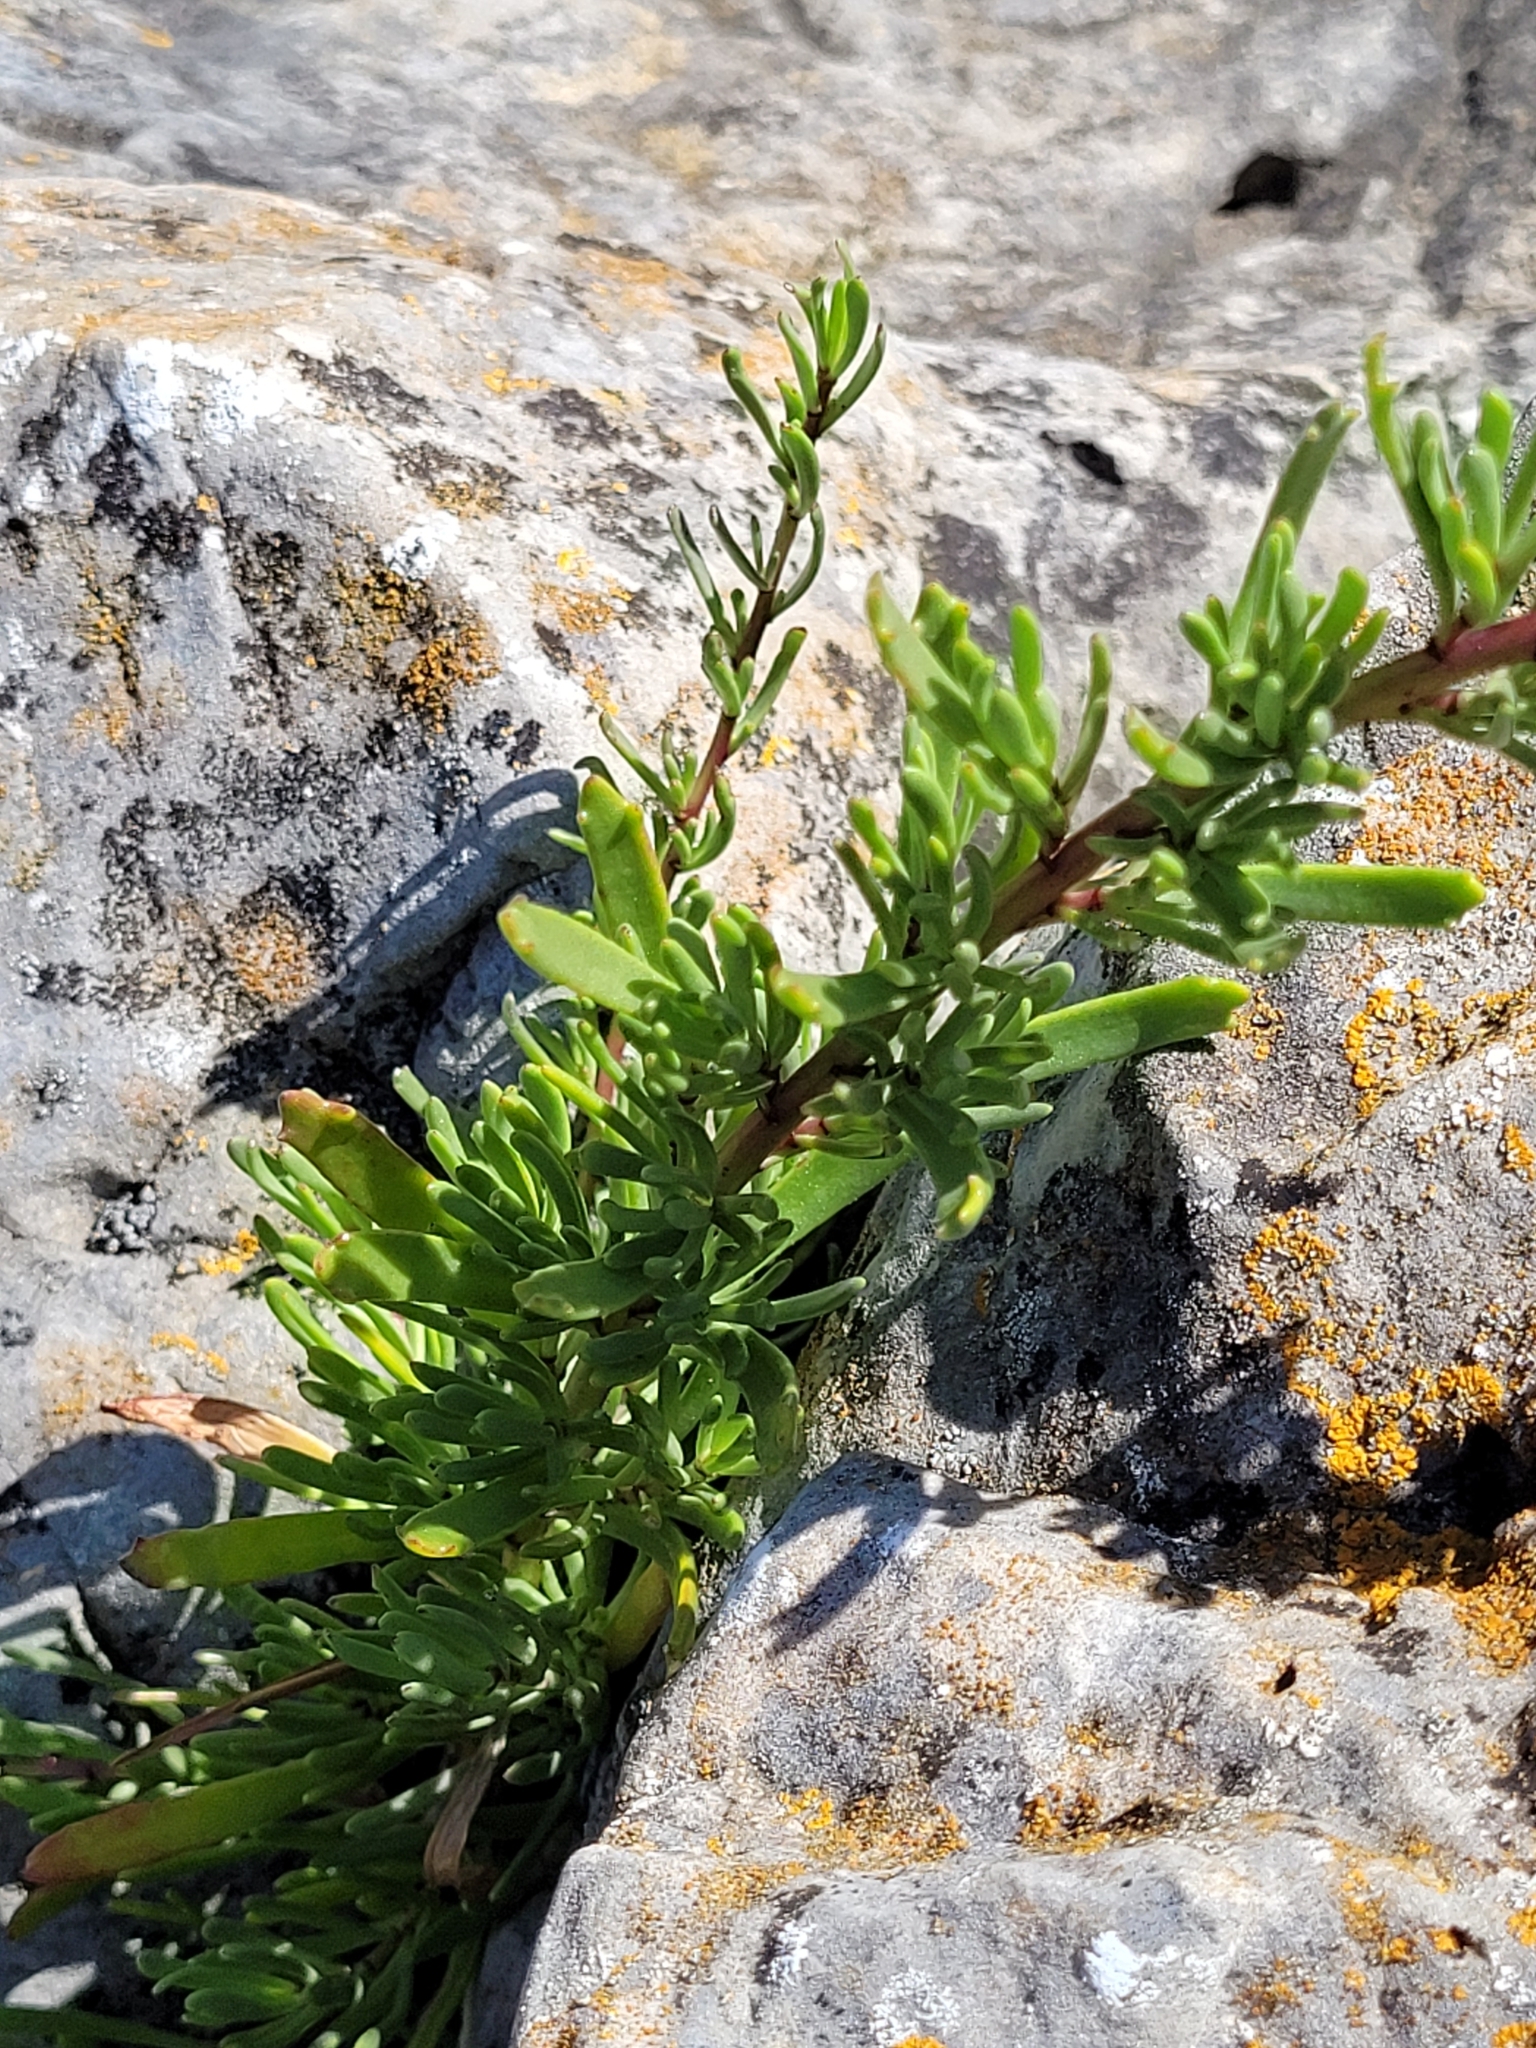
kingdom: Plantae
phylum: Tracheophyta
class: Magnoliopsida
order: Asterales
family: Asteraceae
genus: Limbarda
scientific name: Limbarda crithmoides
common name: Golden samphire
